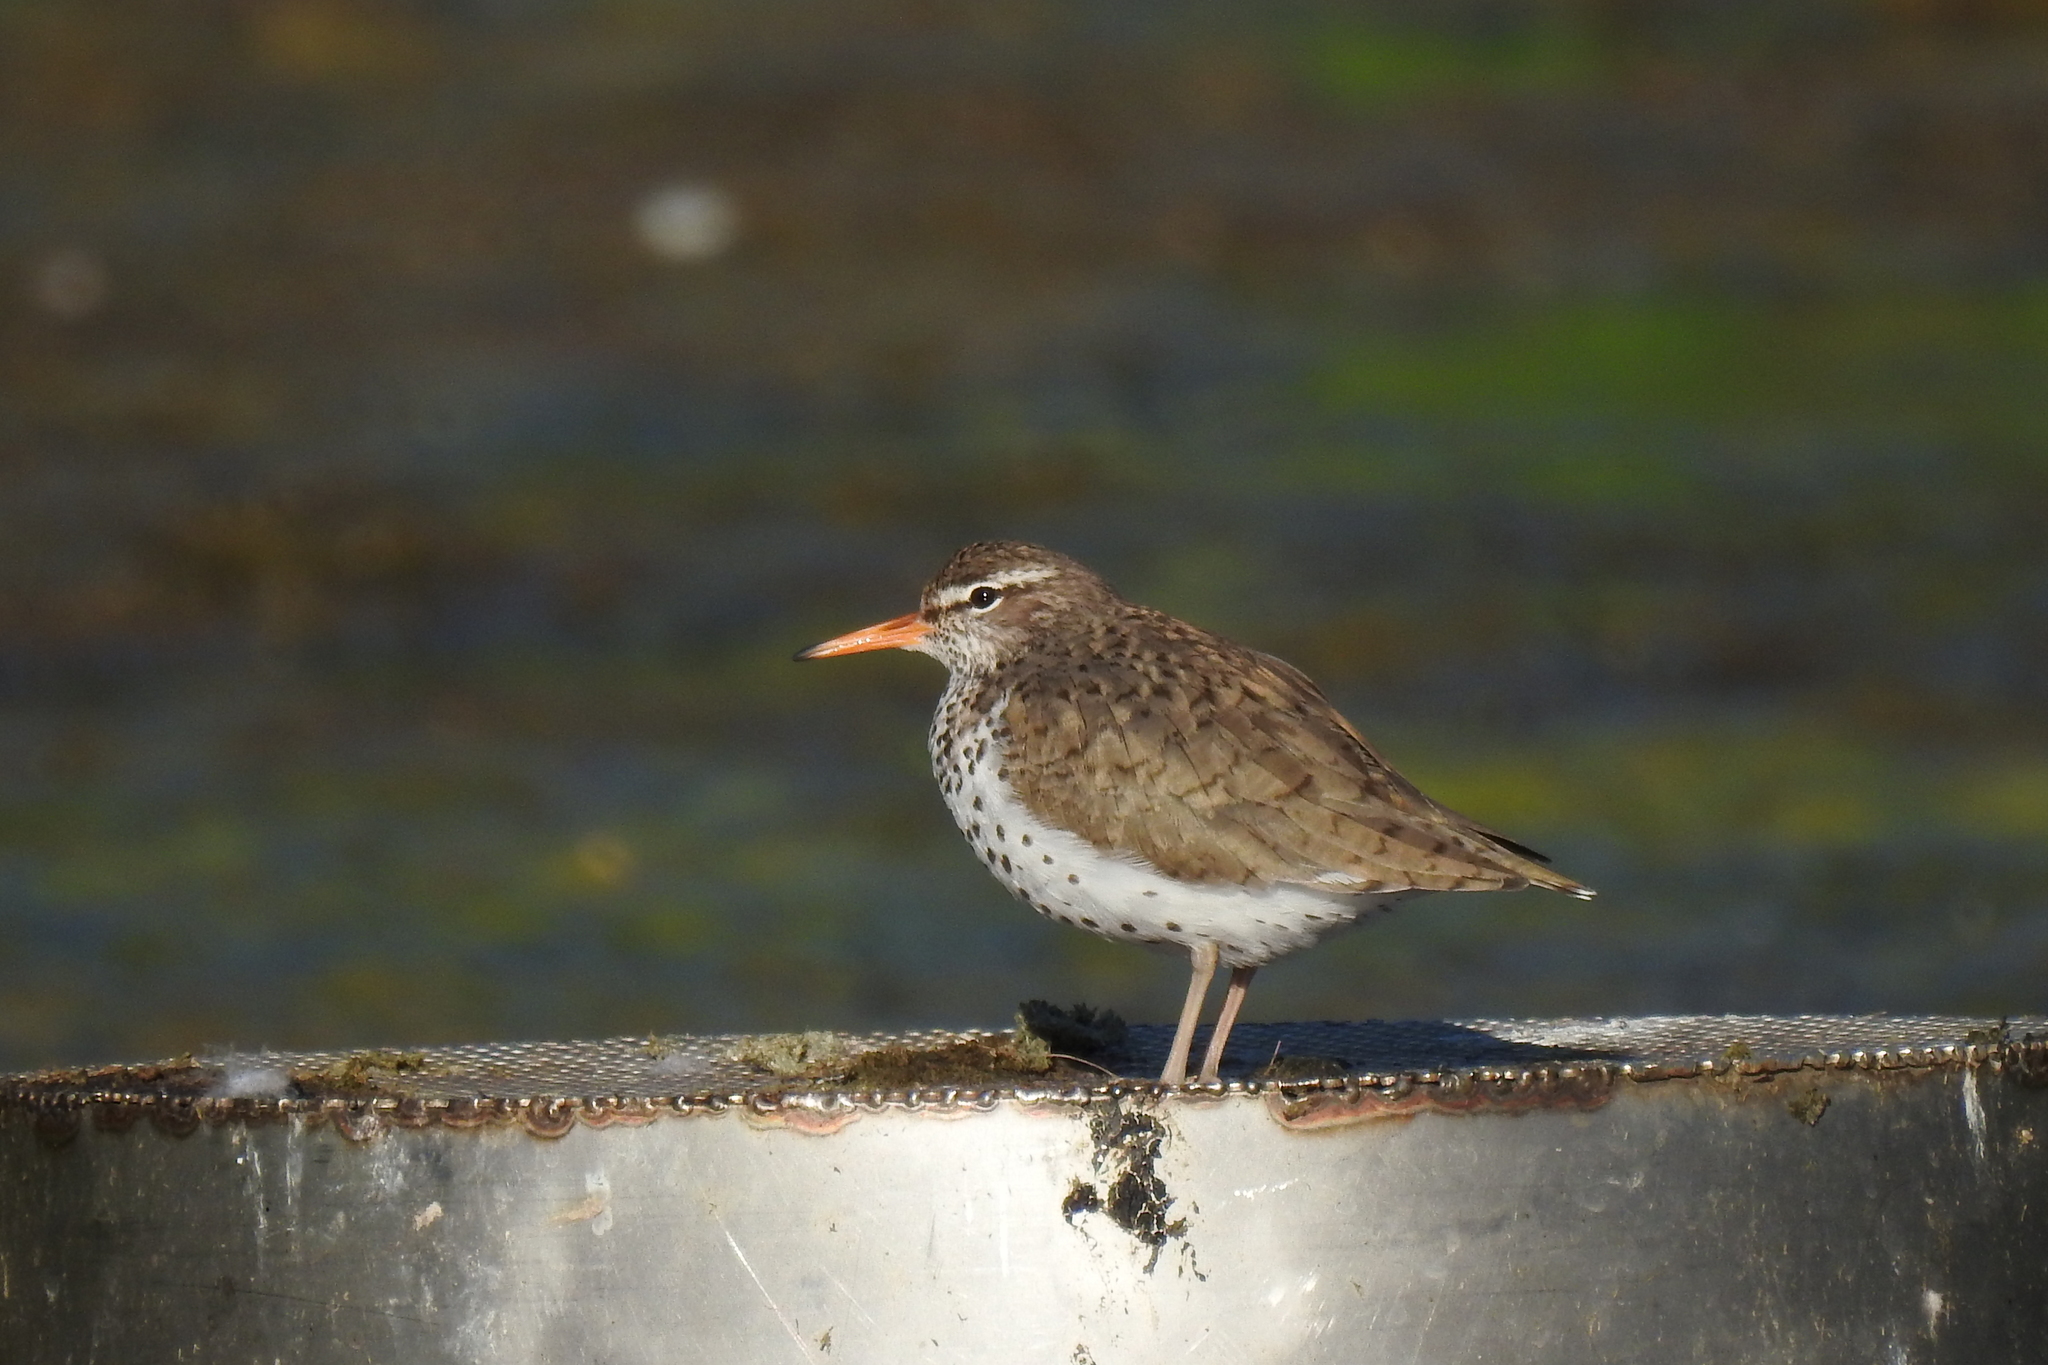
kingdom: Animalia
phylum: Chordata
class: Aves
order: Charadriiformes
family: Scolopacidae
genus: Actitis
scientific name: Actitis macularius
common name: Spotted sandpiper
